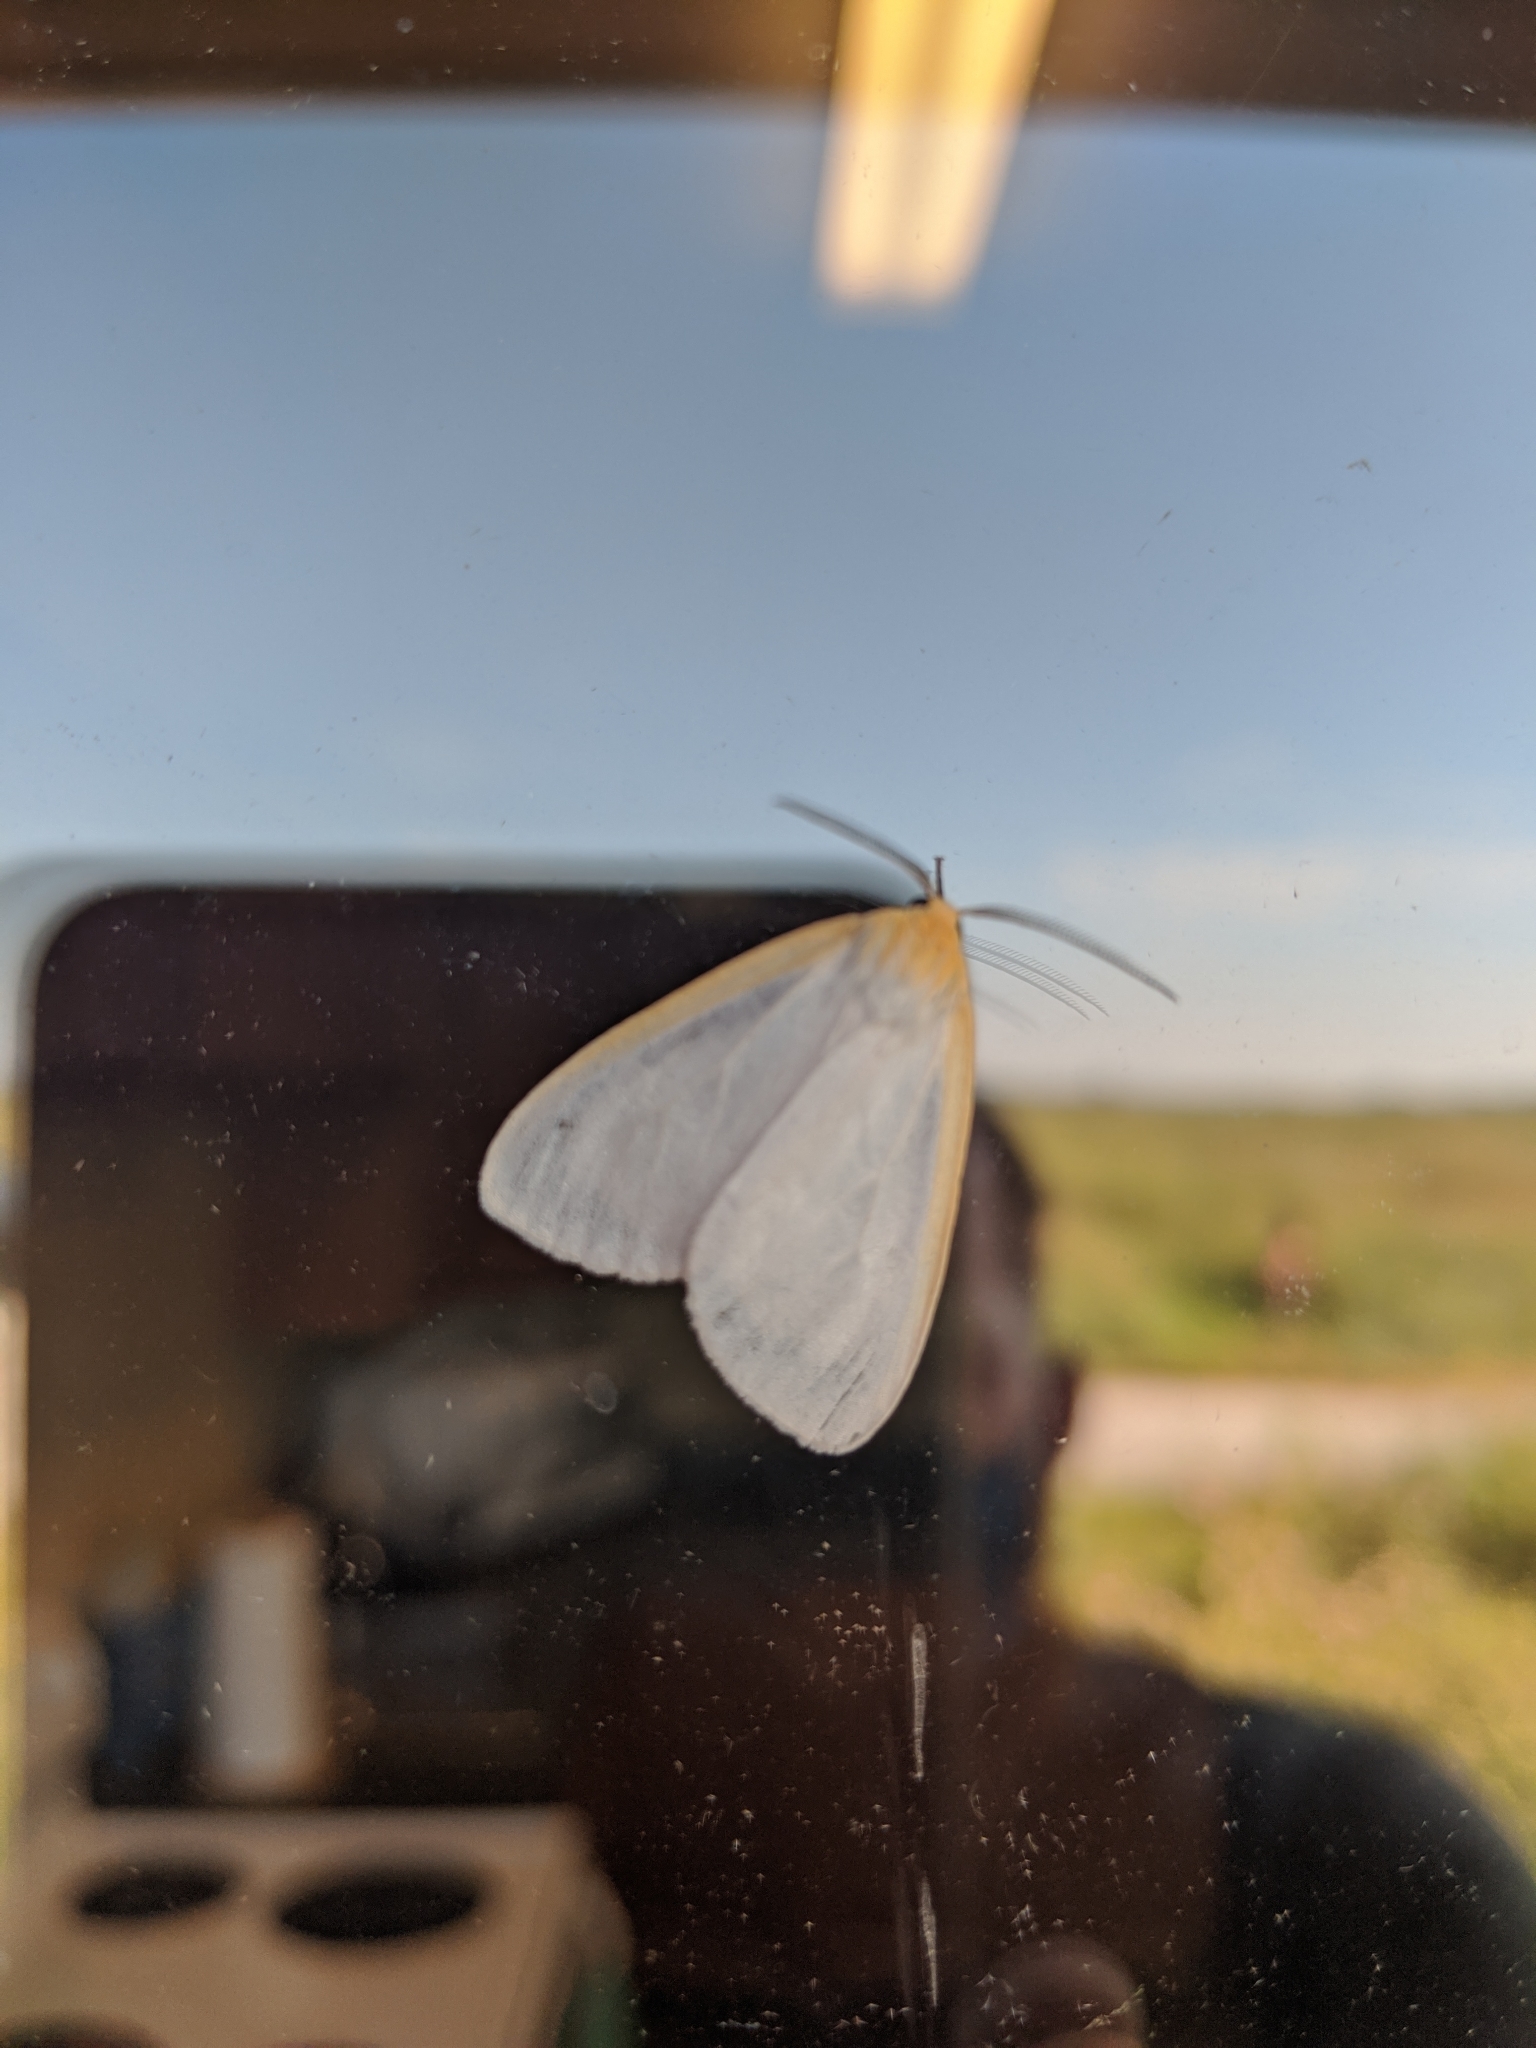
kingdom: Animalia
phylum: Arthropoda
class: Insecta
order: Lepidoptera
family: Erebidae
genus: Cycnia
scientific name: Cycnia tenera
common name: Delicate cycnia moth
